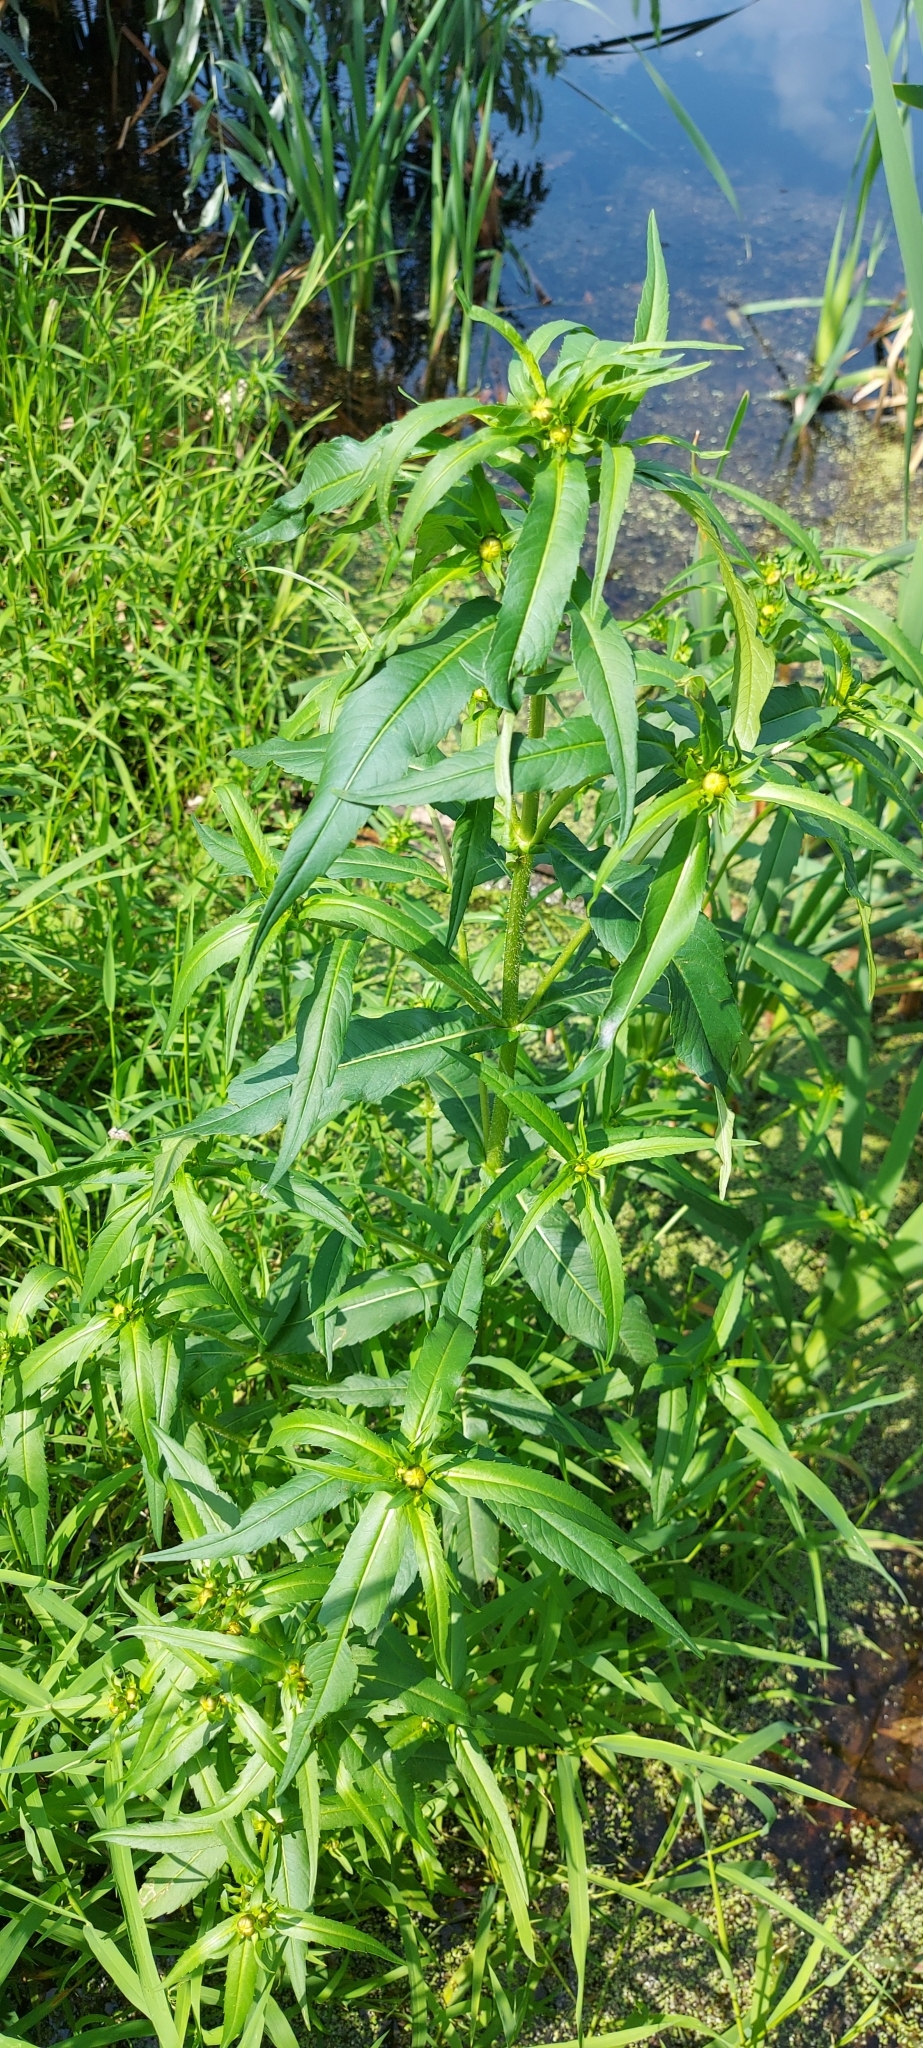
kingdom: Plantae
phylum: Tracheophyta
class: Magnoliopsida
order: Asterales
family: Asteraceae
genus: Bidens
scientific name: Bidens cernua
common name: Nodding bur-marigold
